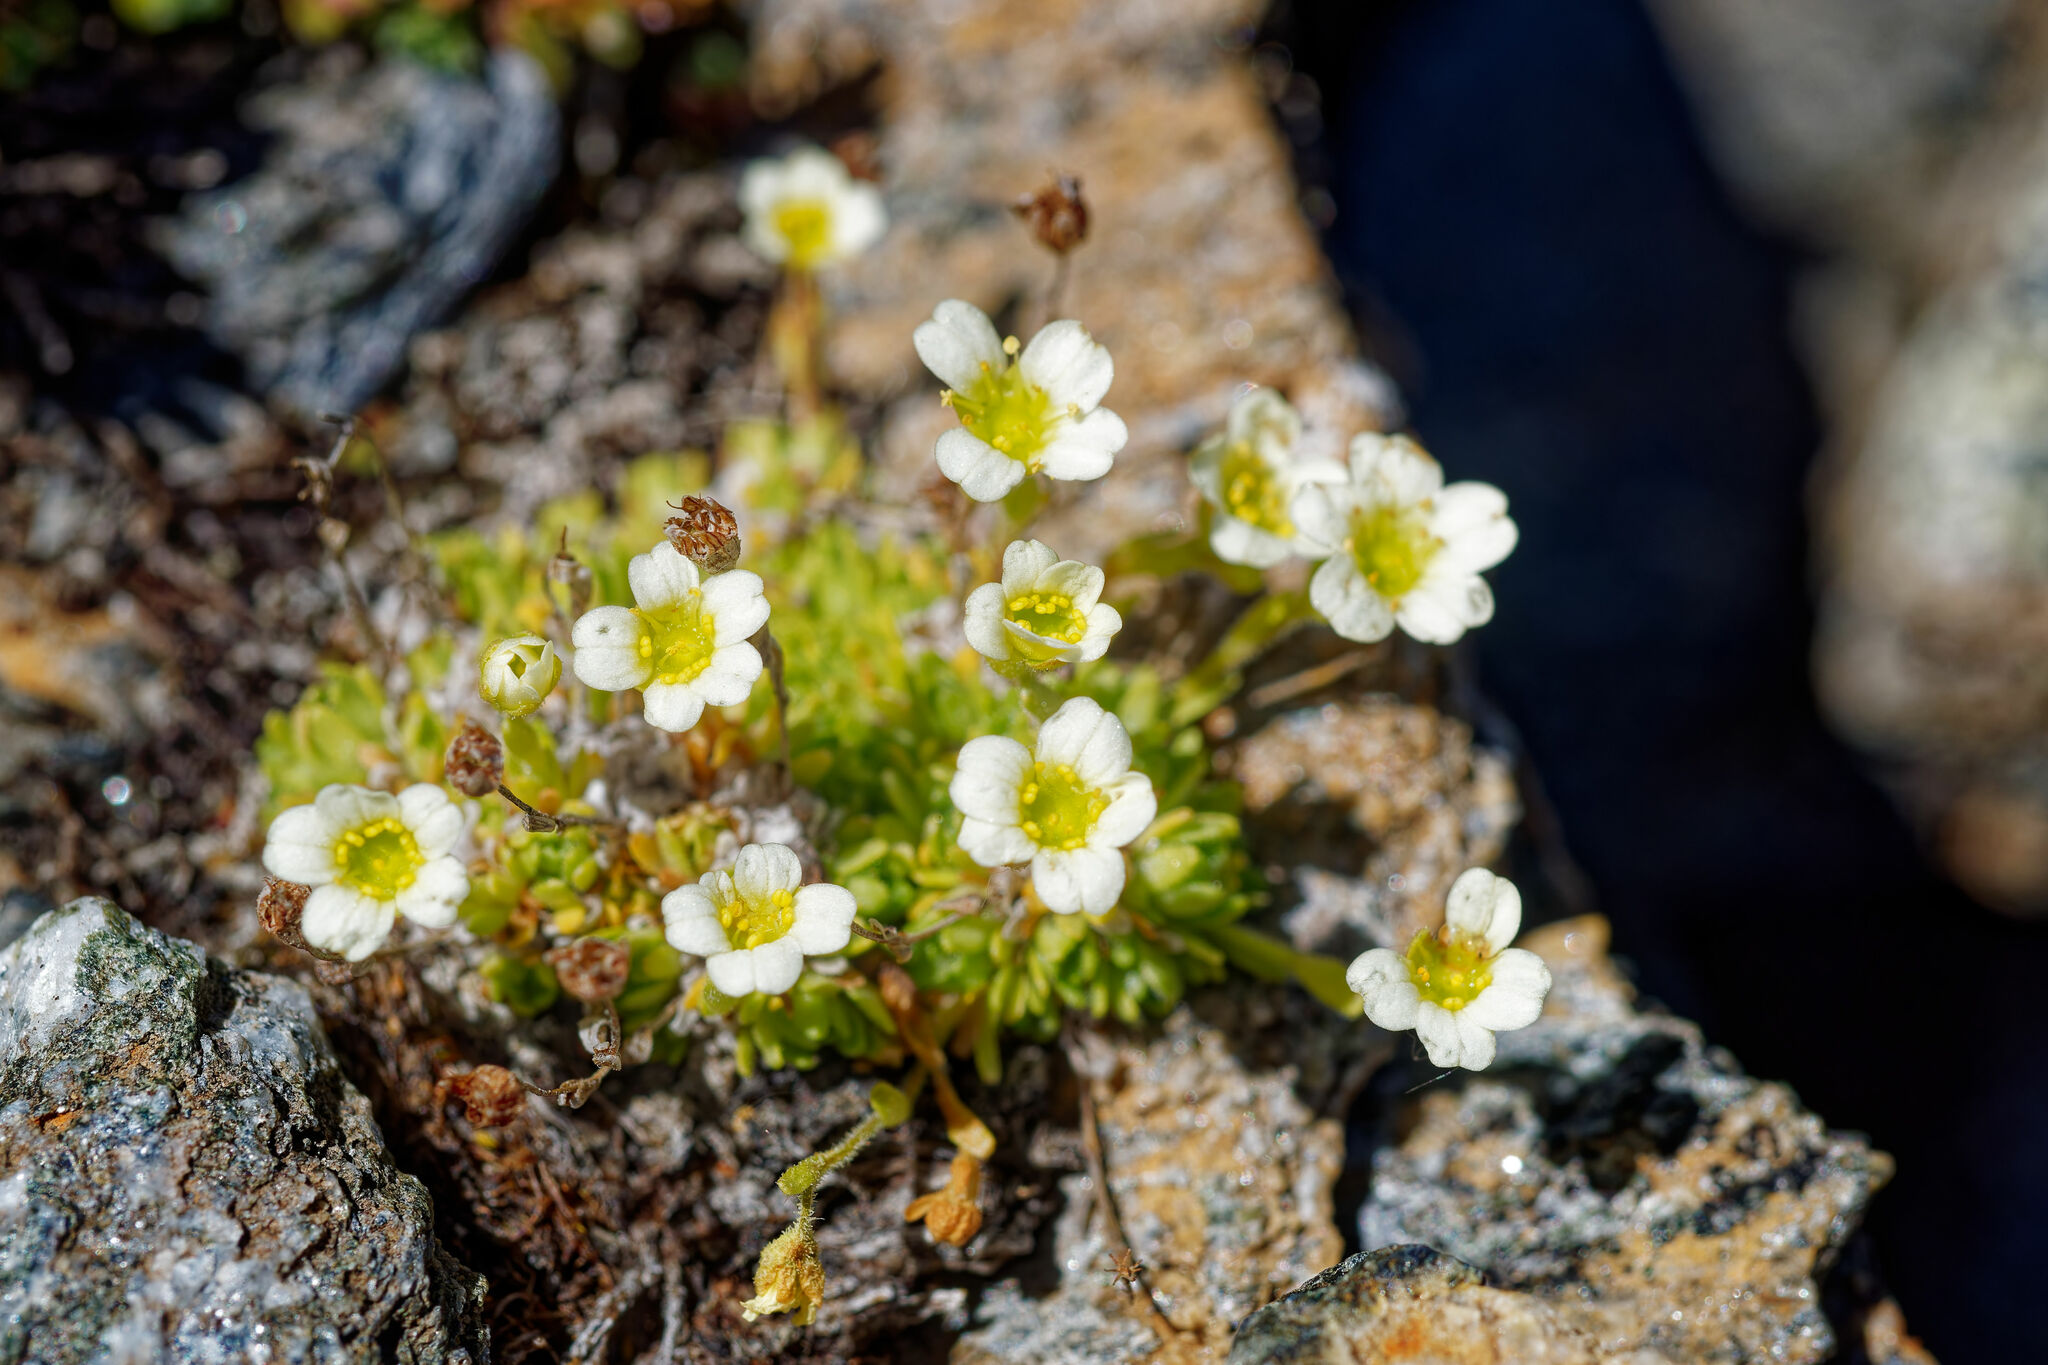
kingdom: Plantae
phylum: Tracheophyta
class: Magnoliopsida
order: Saxifragales
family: Saxifragaceae
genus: Saxifraga
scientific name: Saxifraga muscoides
